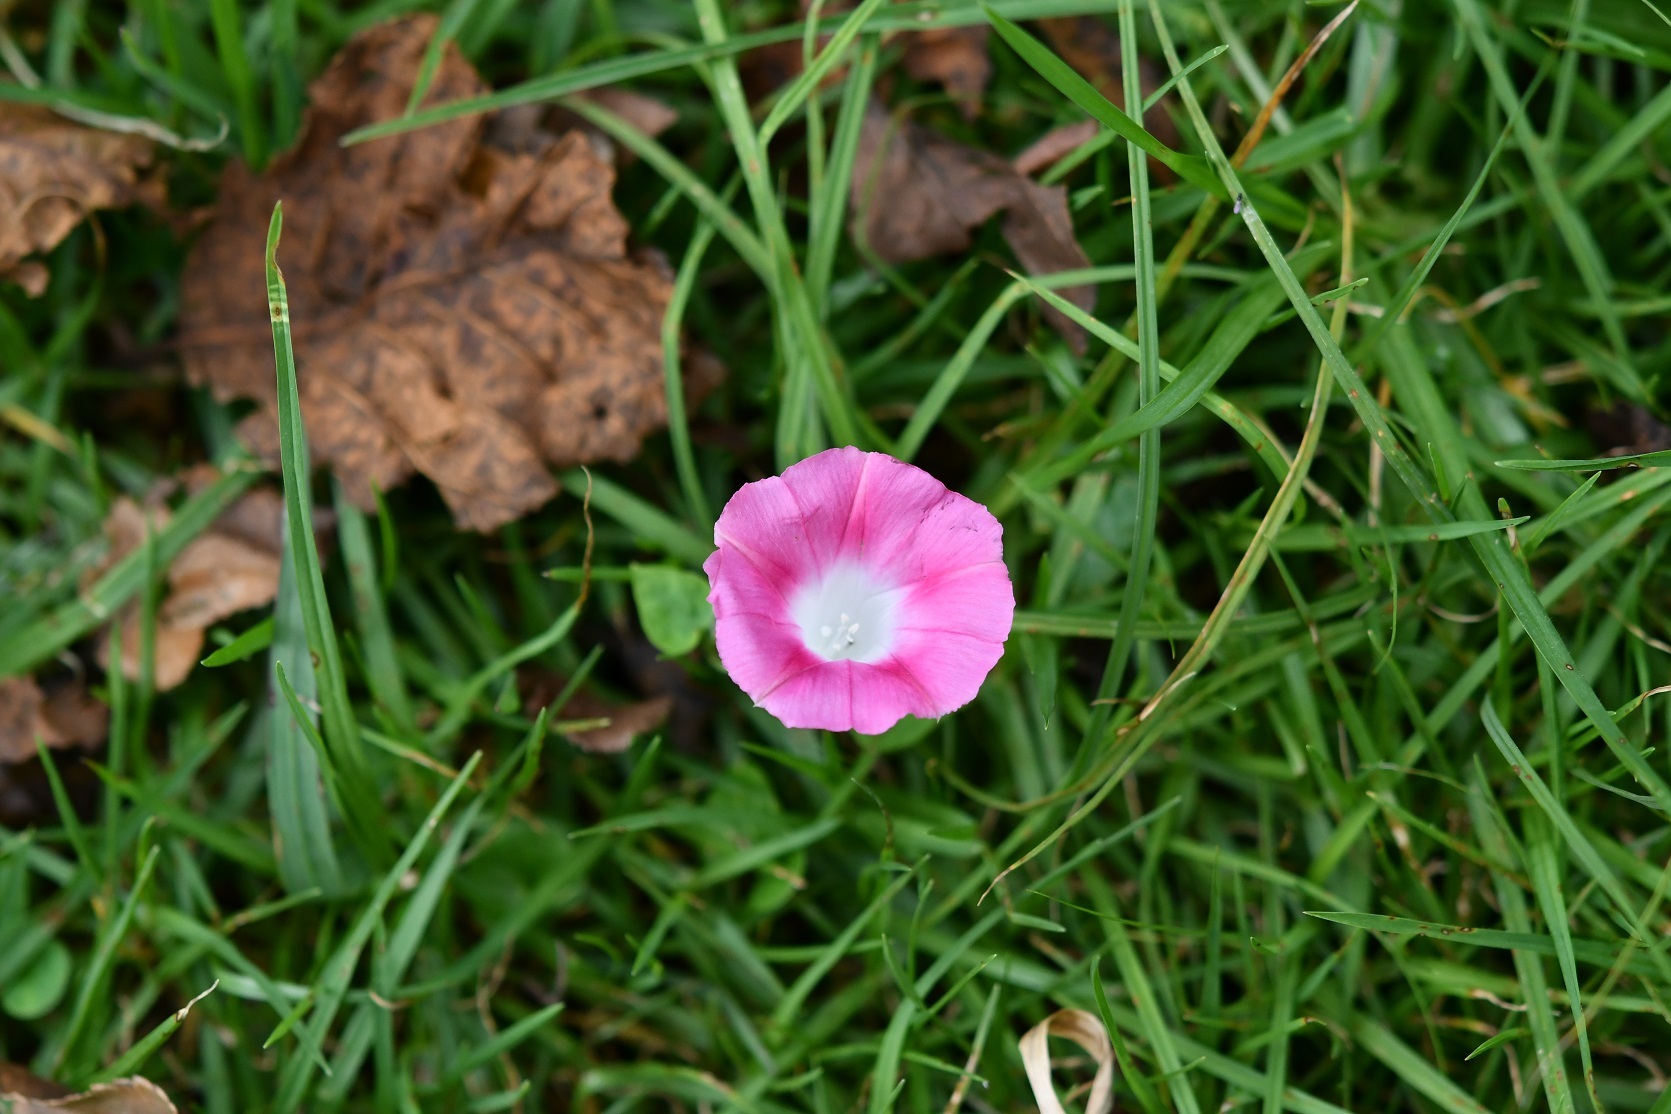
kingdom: Plantae
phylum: Tracheophyta
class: Magnoliopsida
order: Solanales
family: Convolvulaceae
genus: Ipomoea
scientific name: Ipomoea purpurea
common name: Common morning-glory
